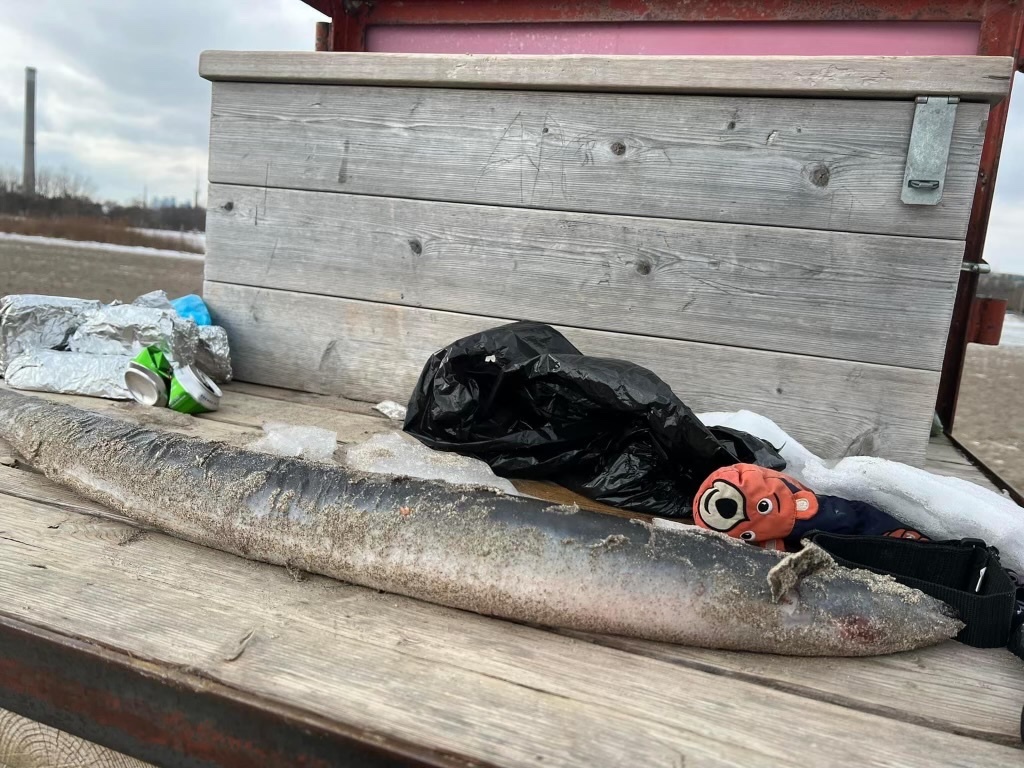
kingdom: Animalia
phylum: Chordata
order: Anguilliformes
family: Anguillidae
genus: Anguilla
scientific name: Anguilla rostrata
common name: American eel
